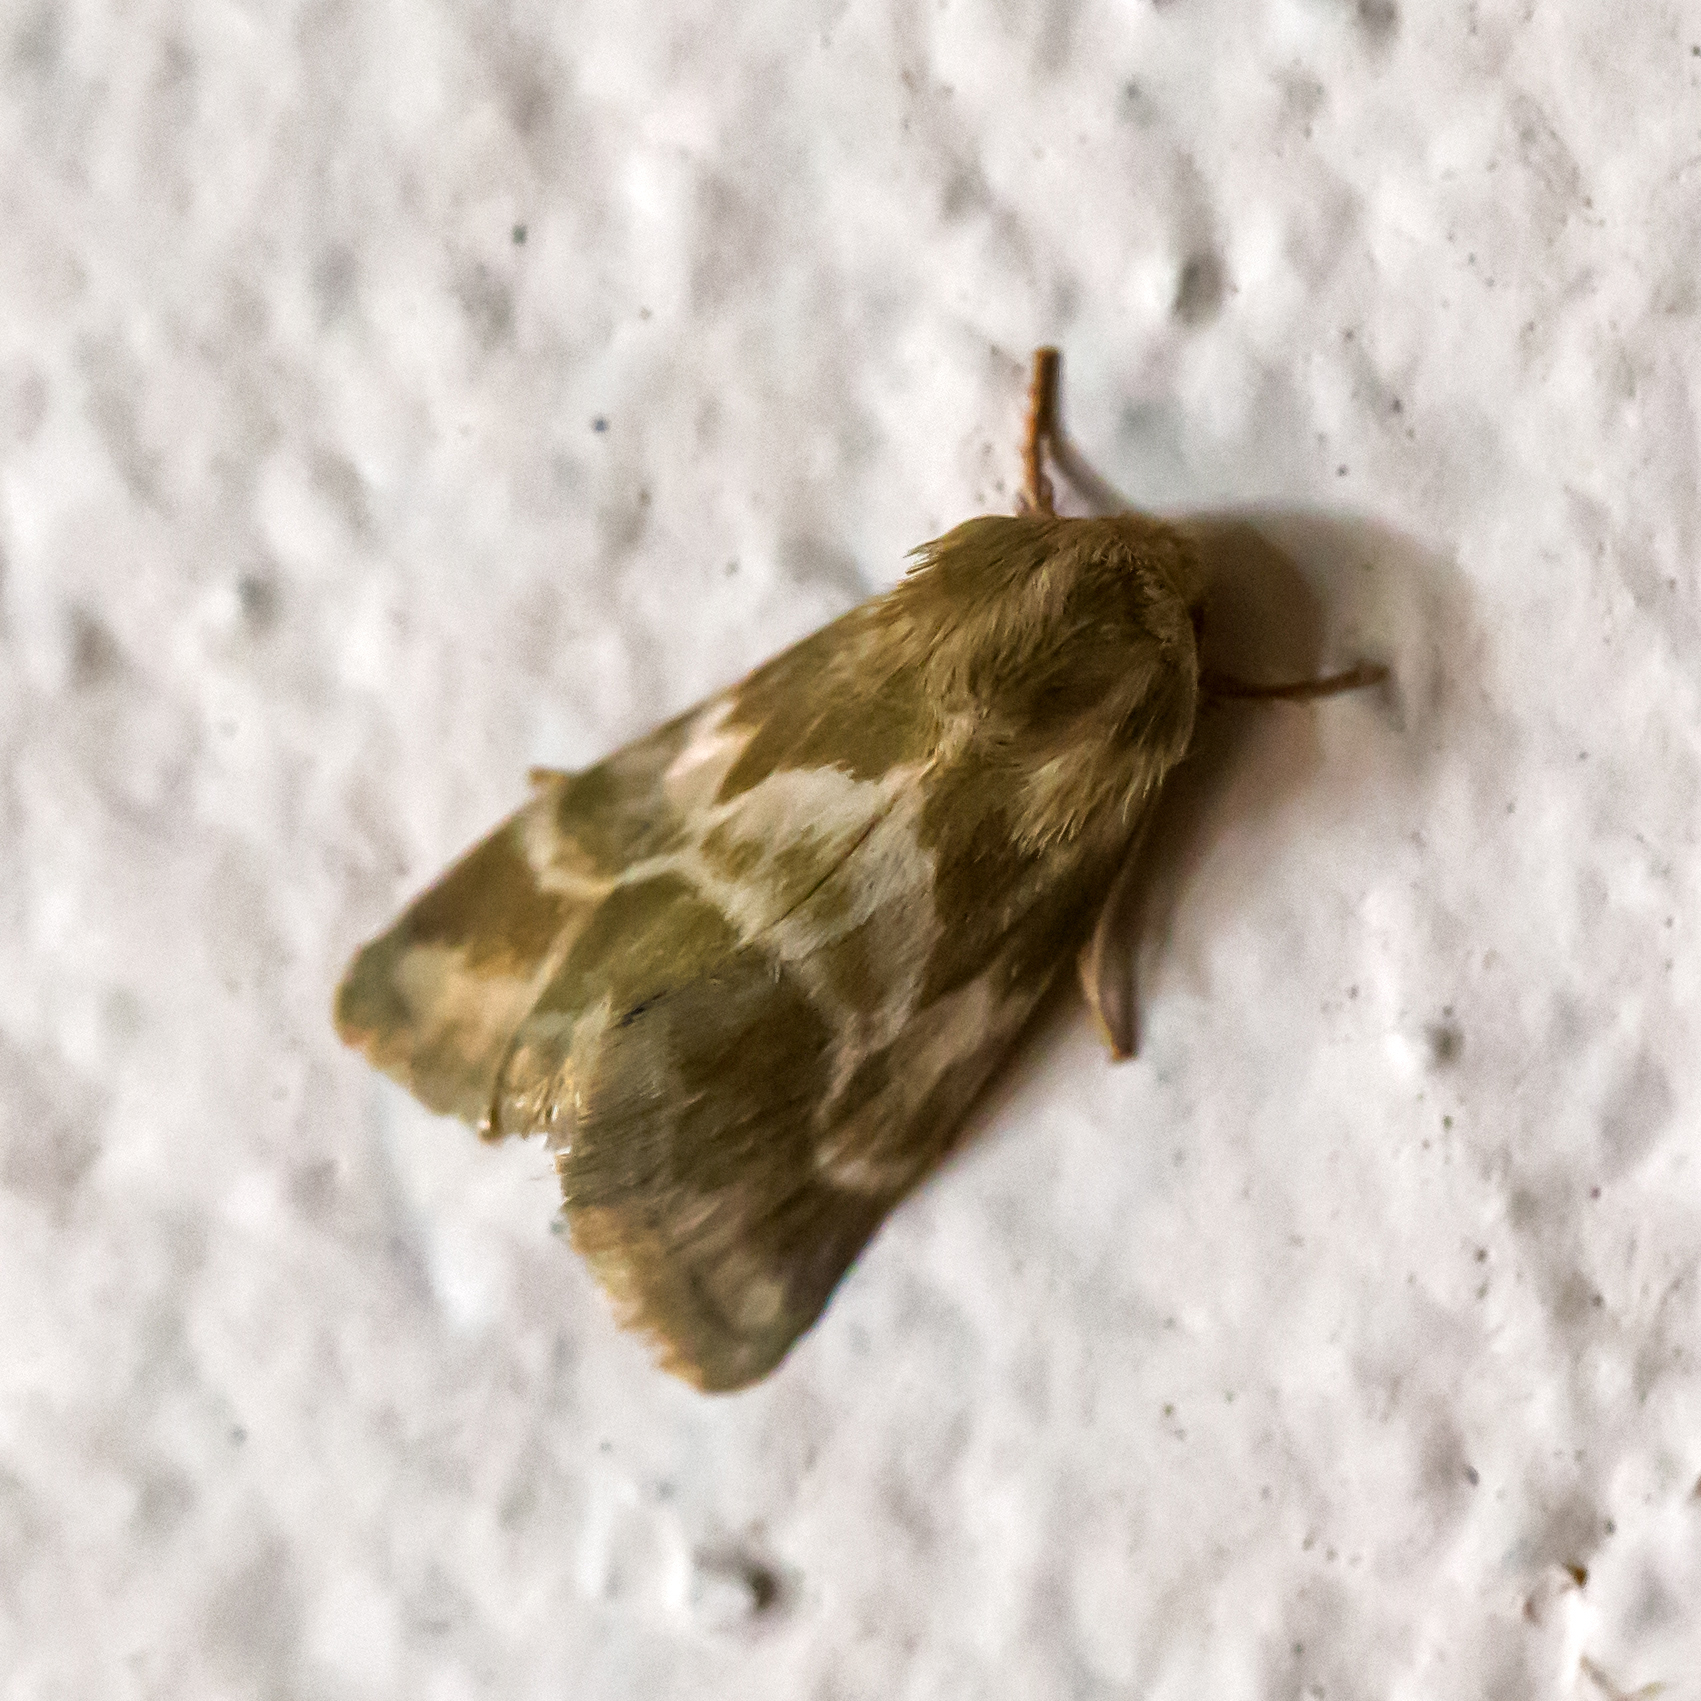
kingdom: Animalia
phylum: Arthropoda
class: Insecta
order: Lepidoptera
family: Noctuidae
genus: Schinia
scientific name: Schinia lynx
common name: Lynx flower moth
